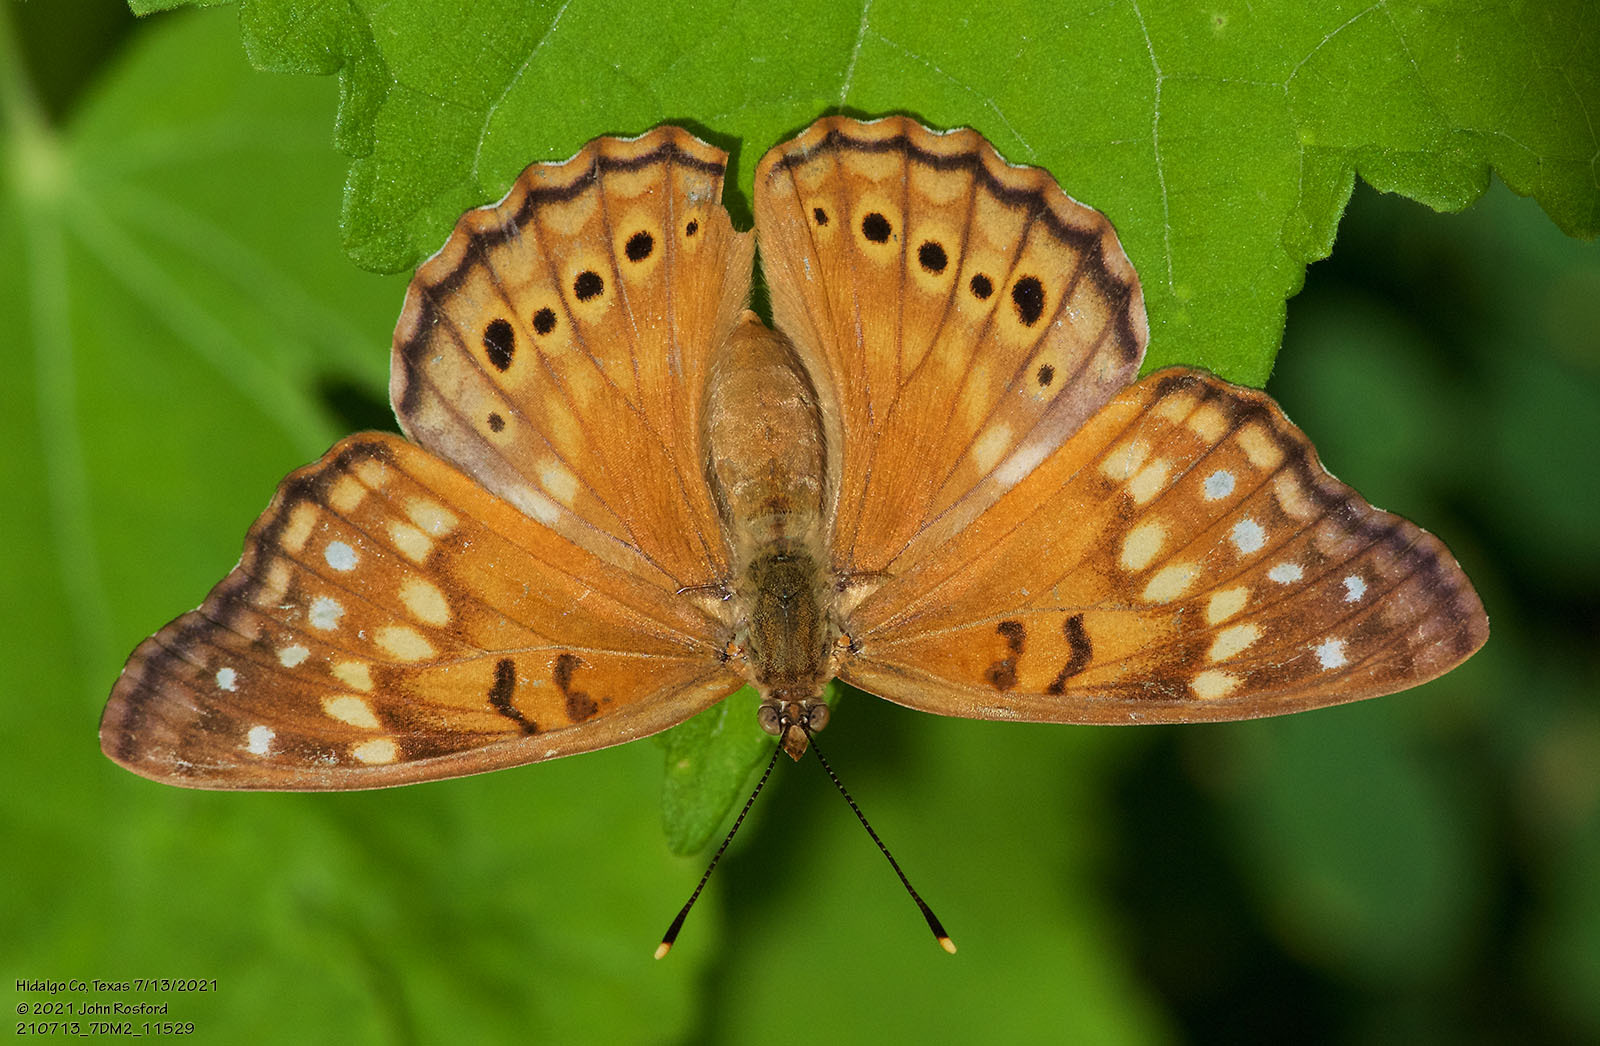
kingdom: Animalia
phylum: Arthropoda
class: Insecta
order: Lepidoptera
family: Nymphalidae
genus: Asterocampa
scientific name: Asterocampa clyton
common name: Tawny emperor
